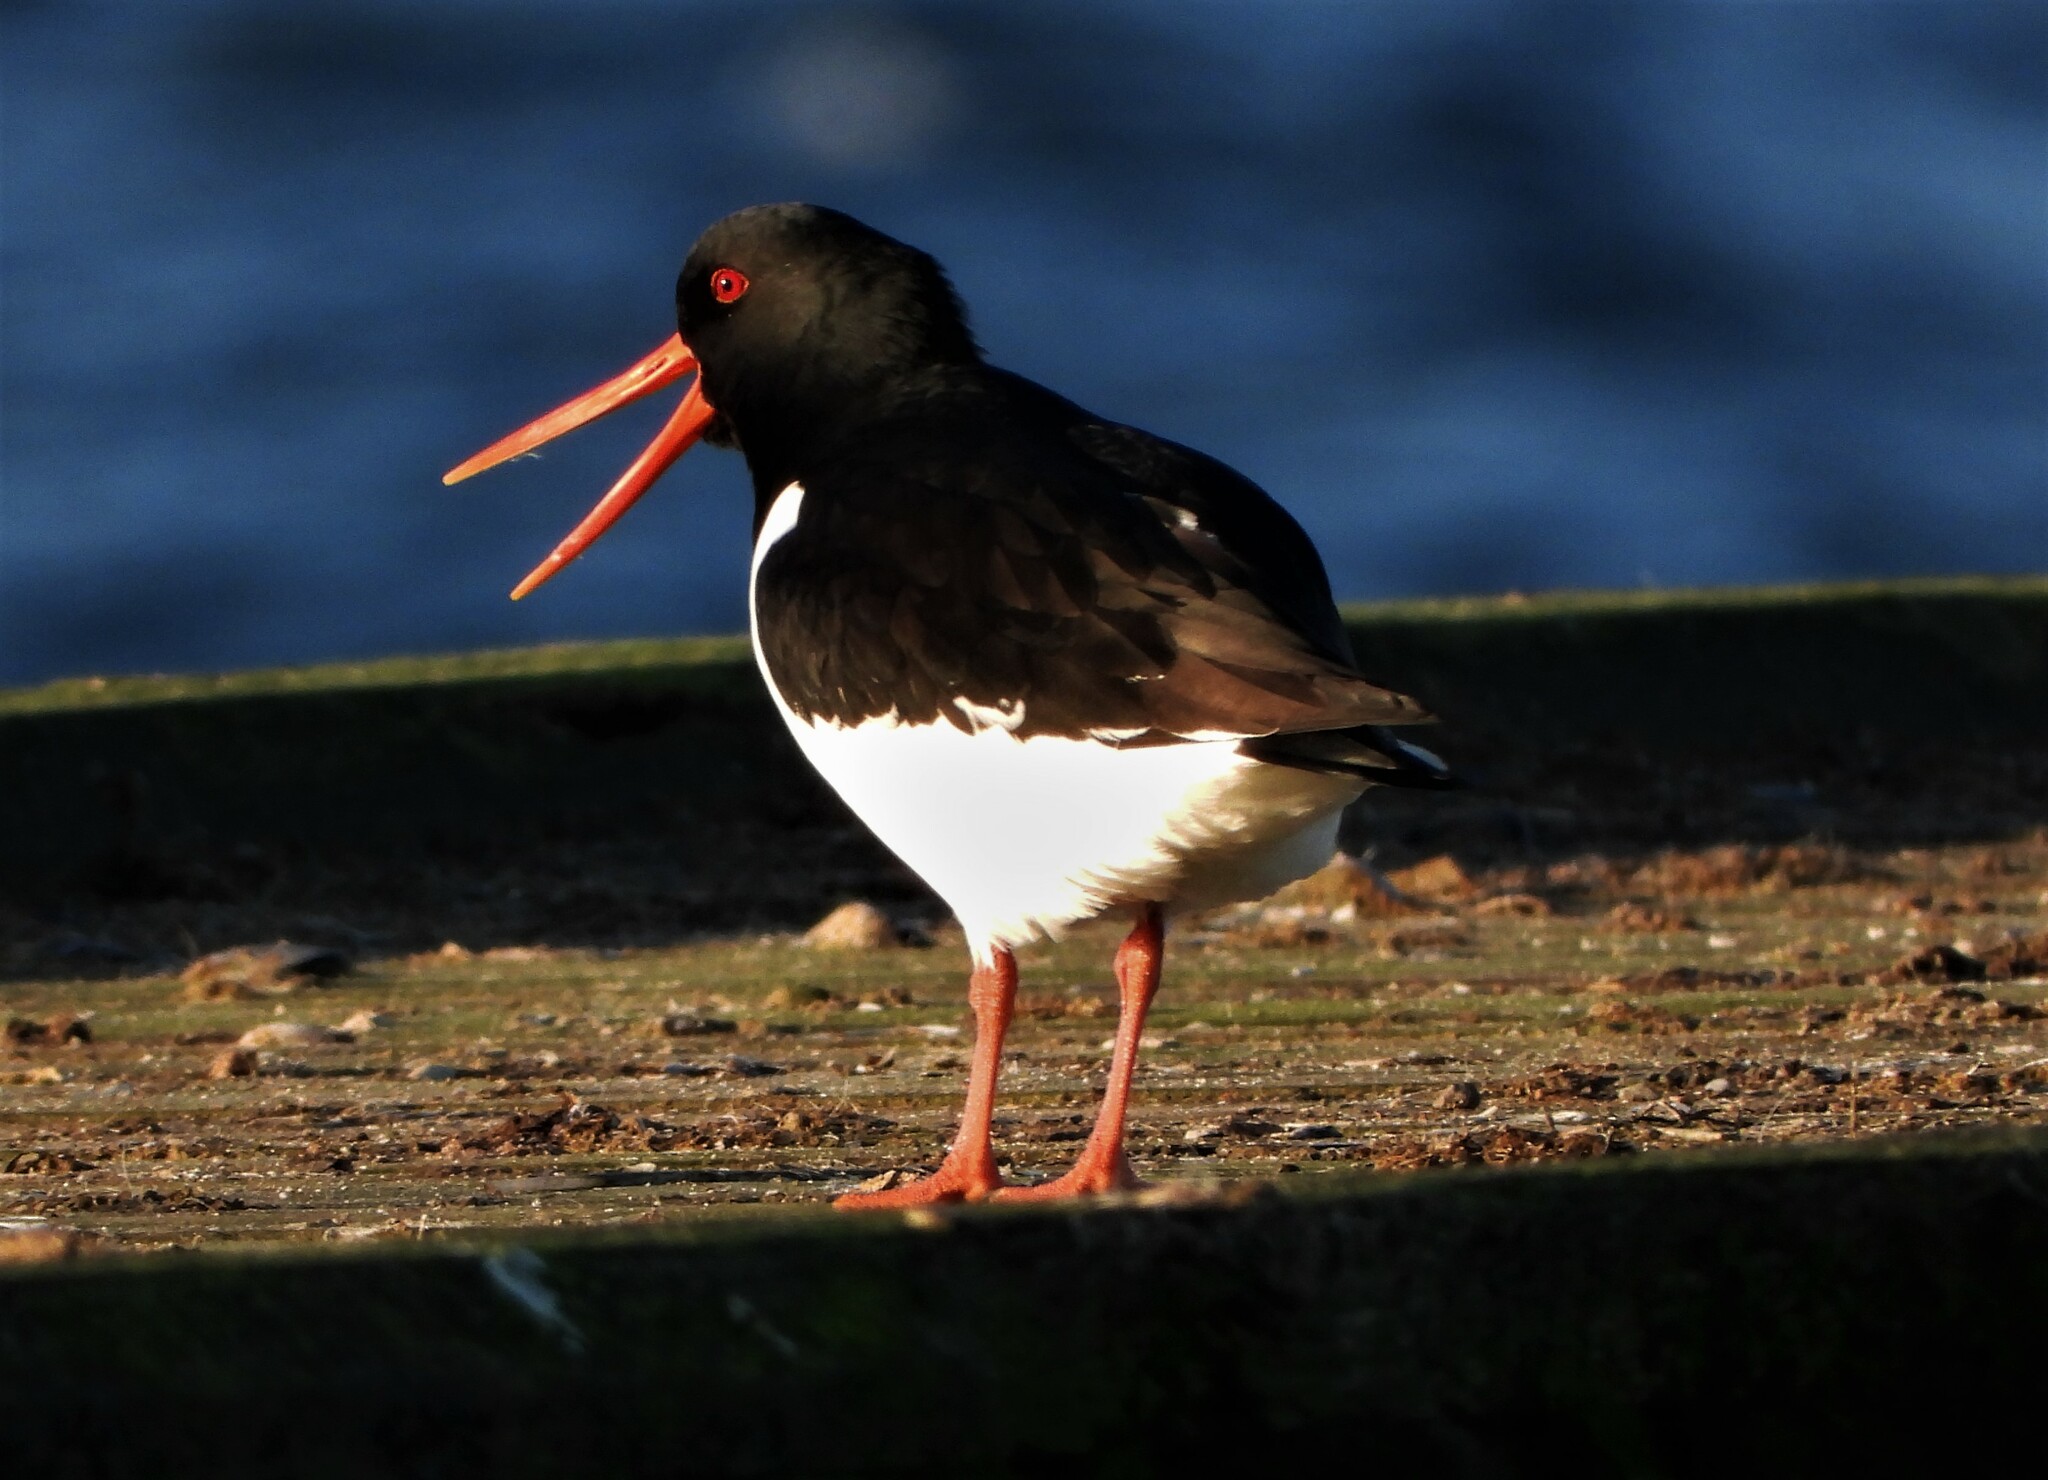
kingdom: Animalia
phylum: Chordata
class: Aves
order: Charadriiformes
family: Haematopodidae
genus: Haematopus
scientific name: Haematopus ostralegus
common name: Eurasian oystercatcher
